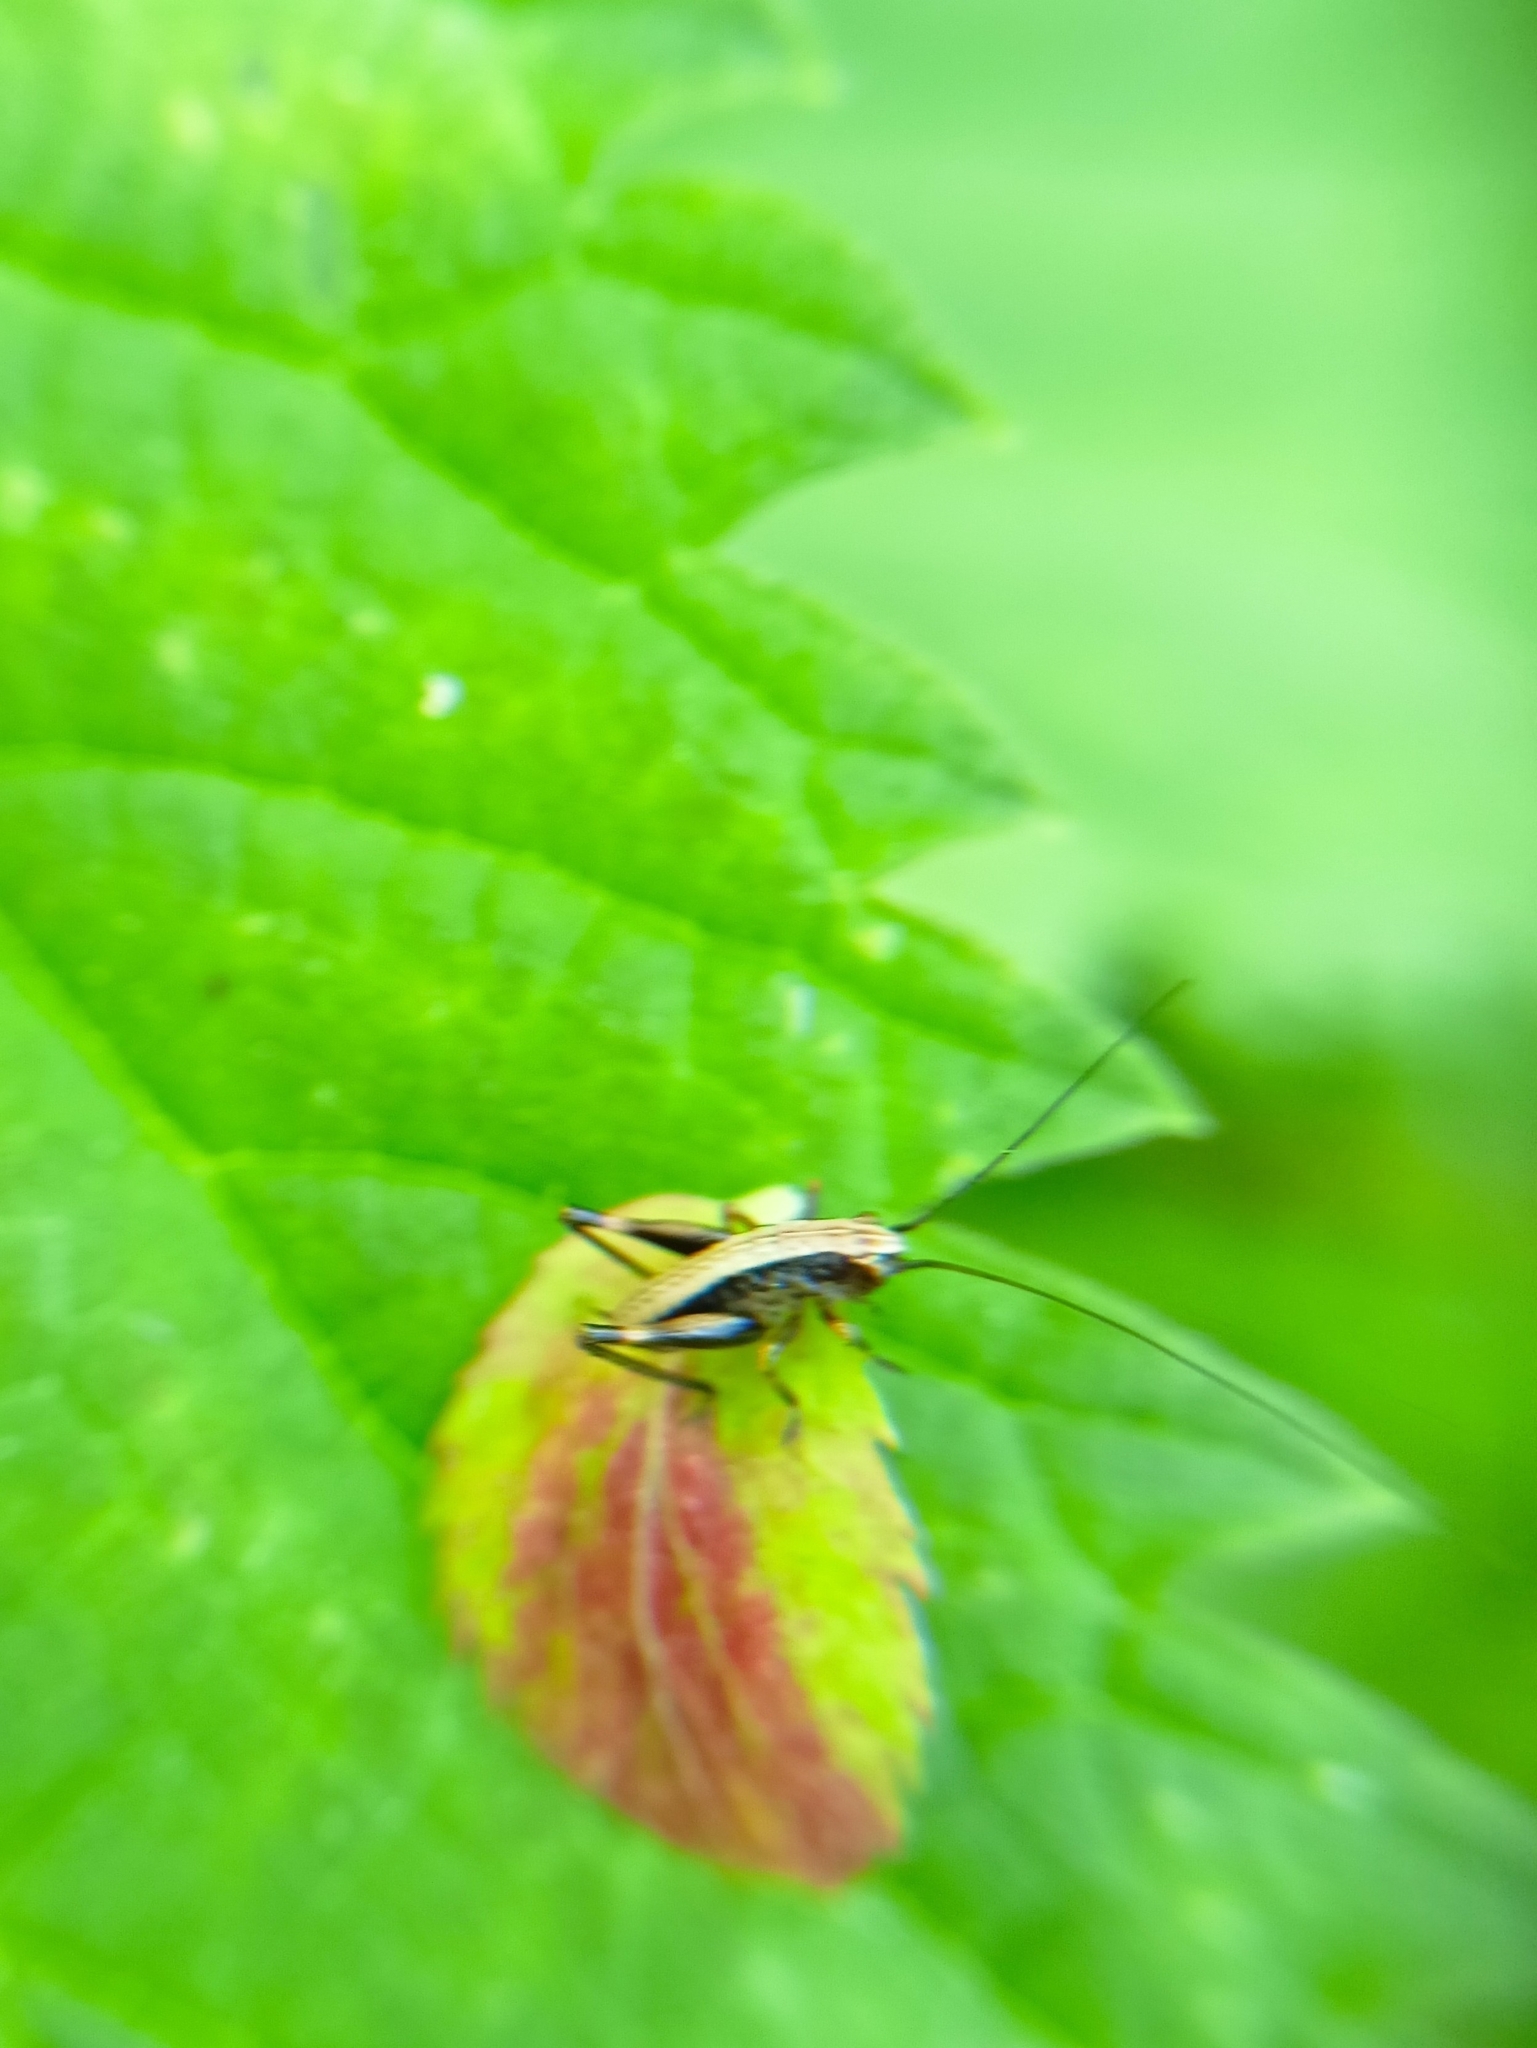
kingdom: Animalia
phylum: Arthropoda
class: Insecta
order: Orthoptera
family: Tettigoniidae
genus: Pholidoptera
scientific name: Pholidoptera griseoaptera
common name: Dark bush-cricket
